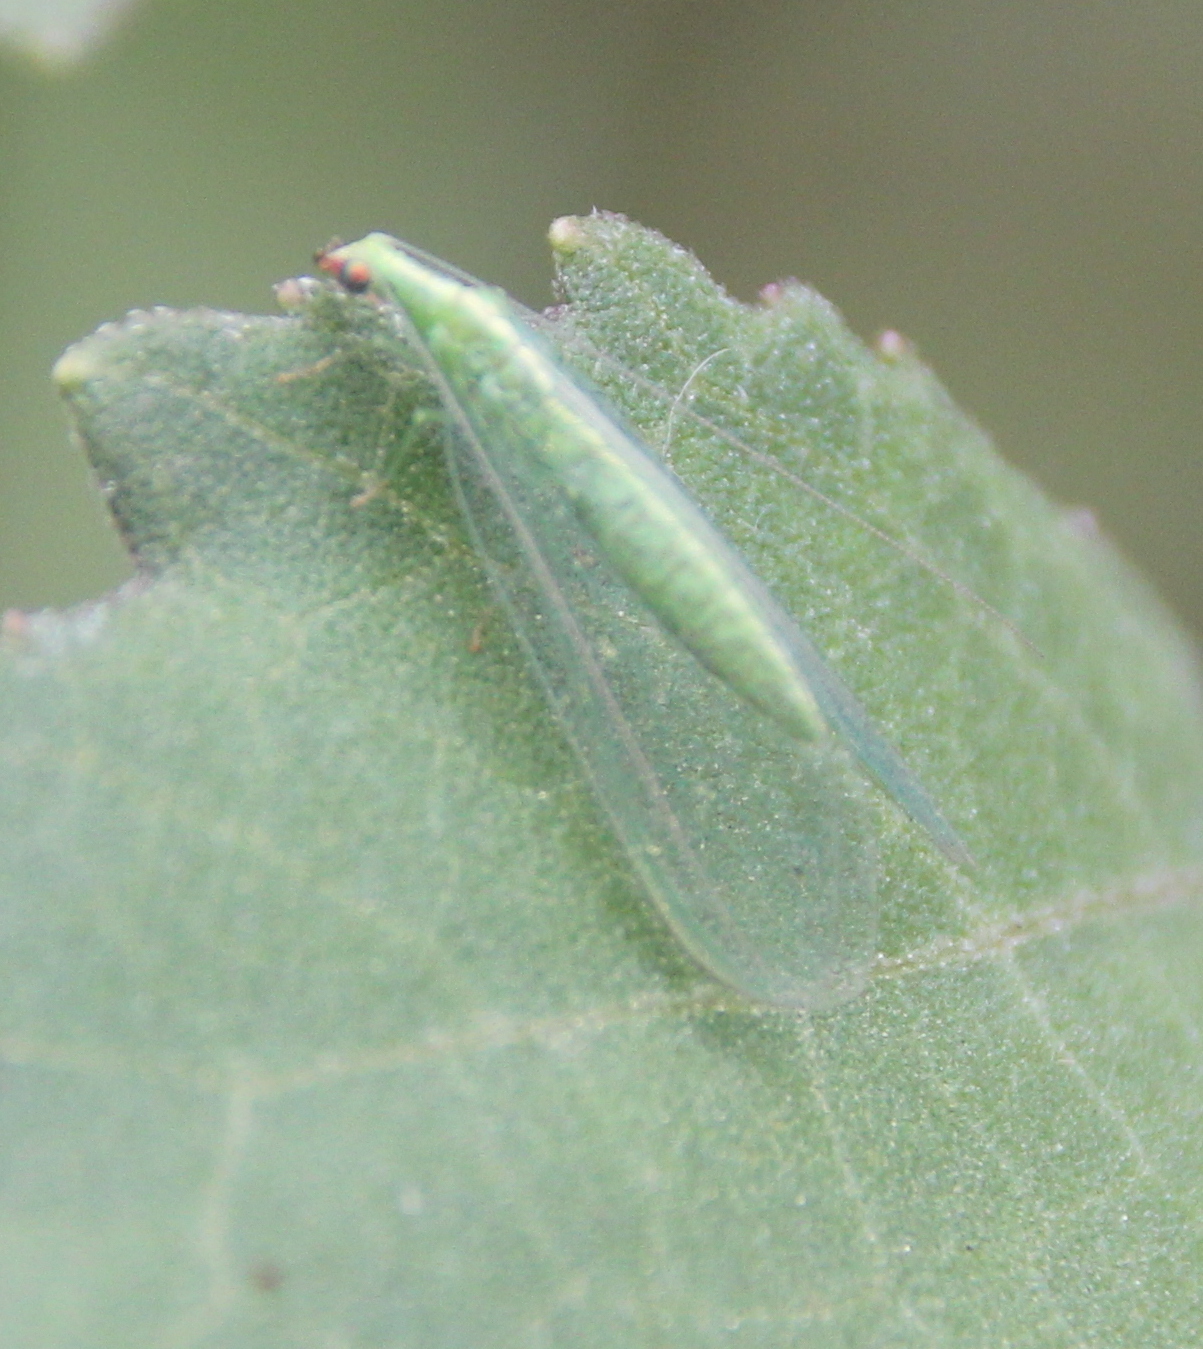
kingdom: Animalia
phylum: Arthropoda
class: Insecta
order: Neuroptera
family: Chrysopidae
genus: Chrysoperla
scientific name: Chrysoperla comanche
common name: Green lacewing
